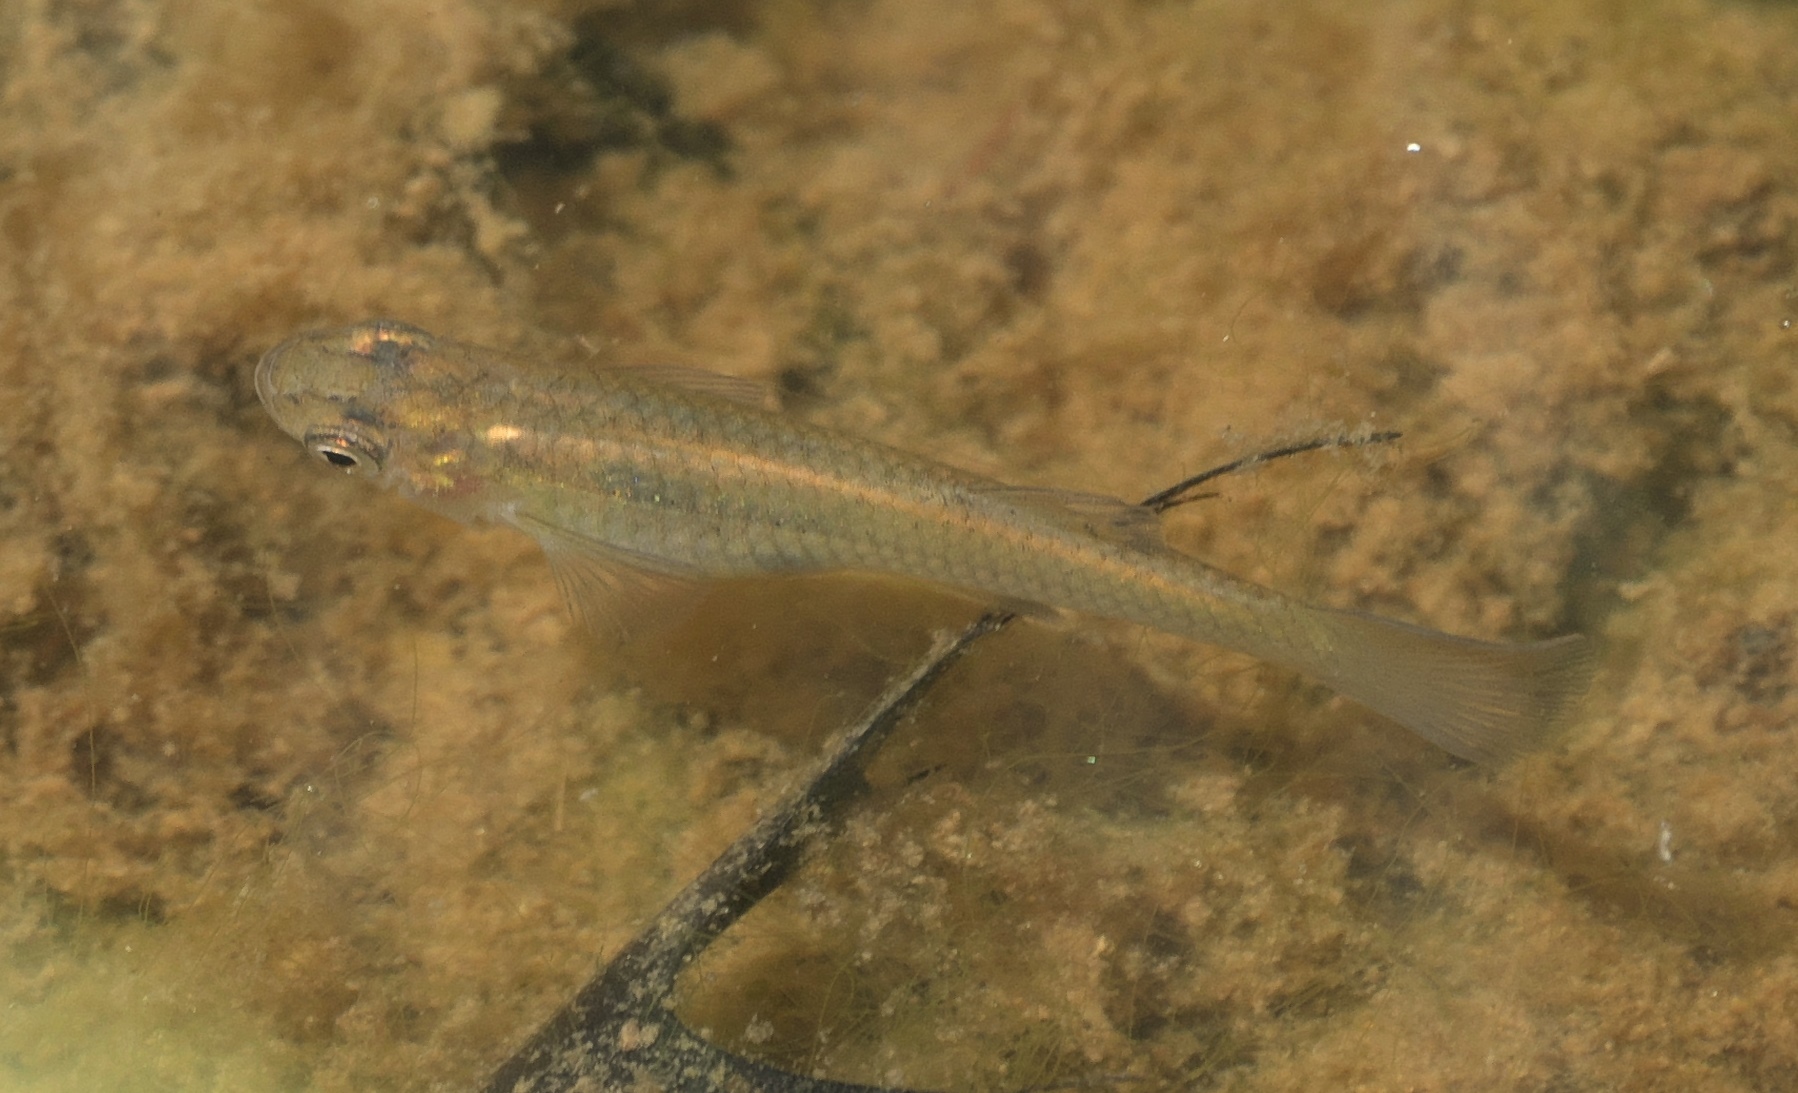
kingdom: Animalia
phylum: Chordata
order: Cyprinodontiformes
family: Poeciliidae
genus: Gambusia
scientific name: Gambusia affinis
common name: Mosquitofish
